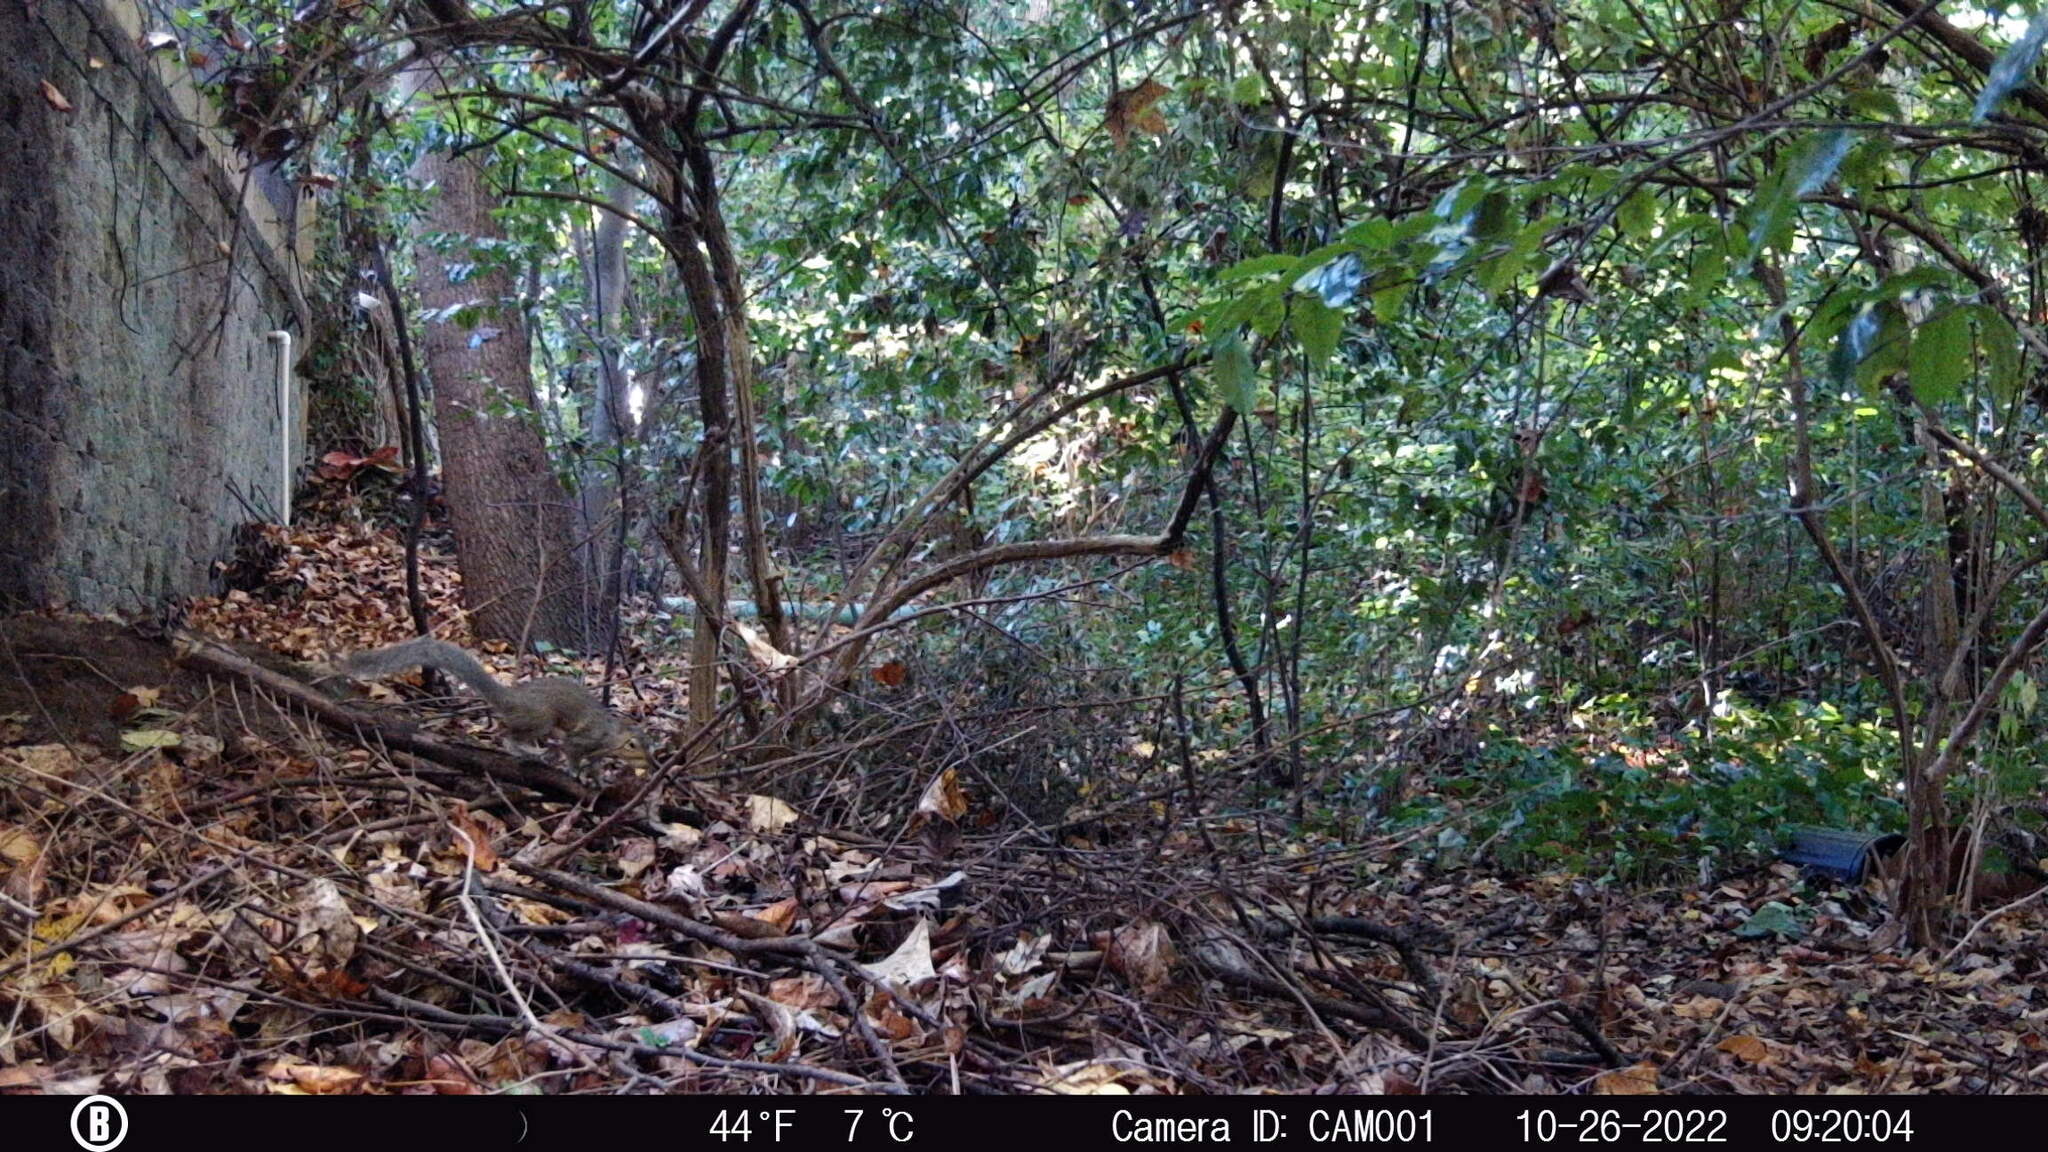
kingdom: Animalia
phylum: Chordata
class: Mammalia
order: Rodentia
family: Sciuridae
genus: Sciurus
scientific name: Sciurus carolinensis
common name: Eastern gray squirrel
